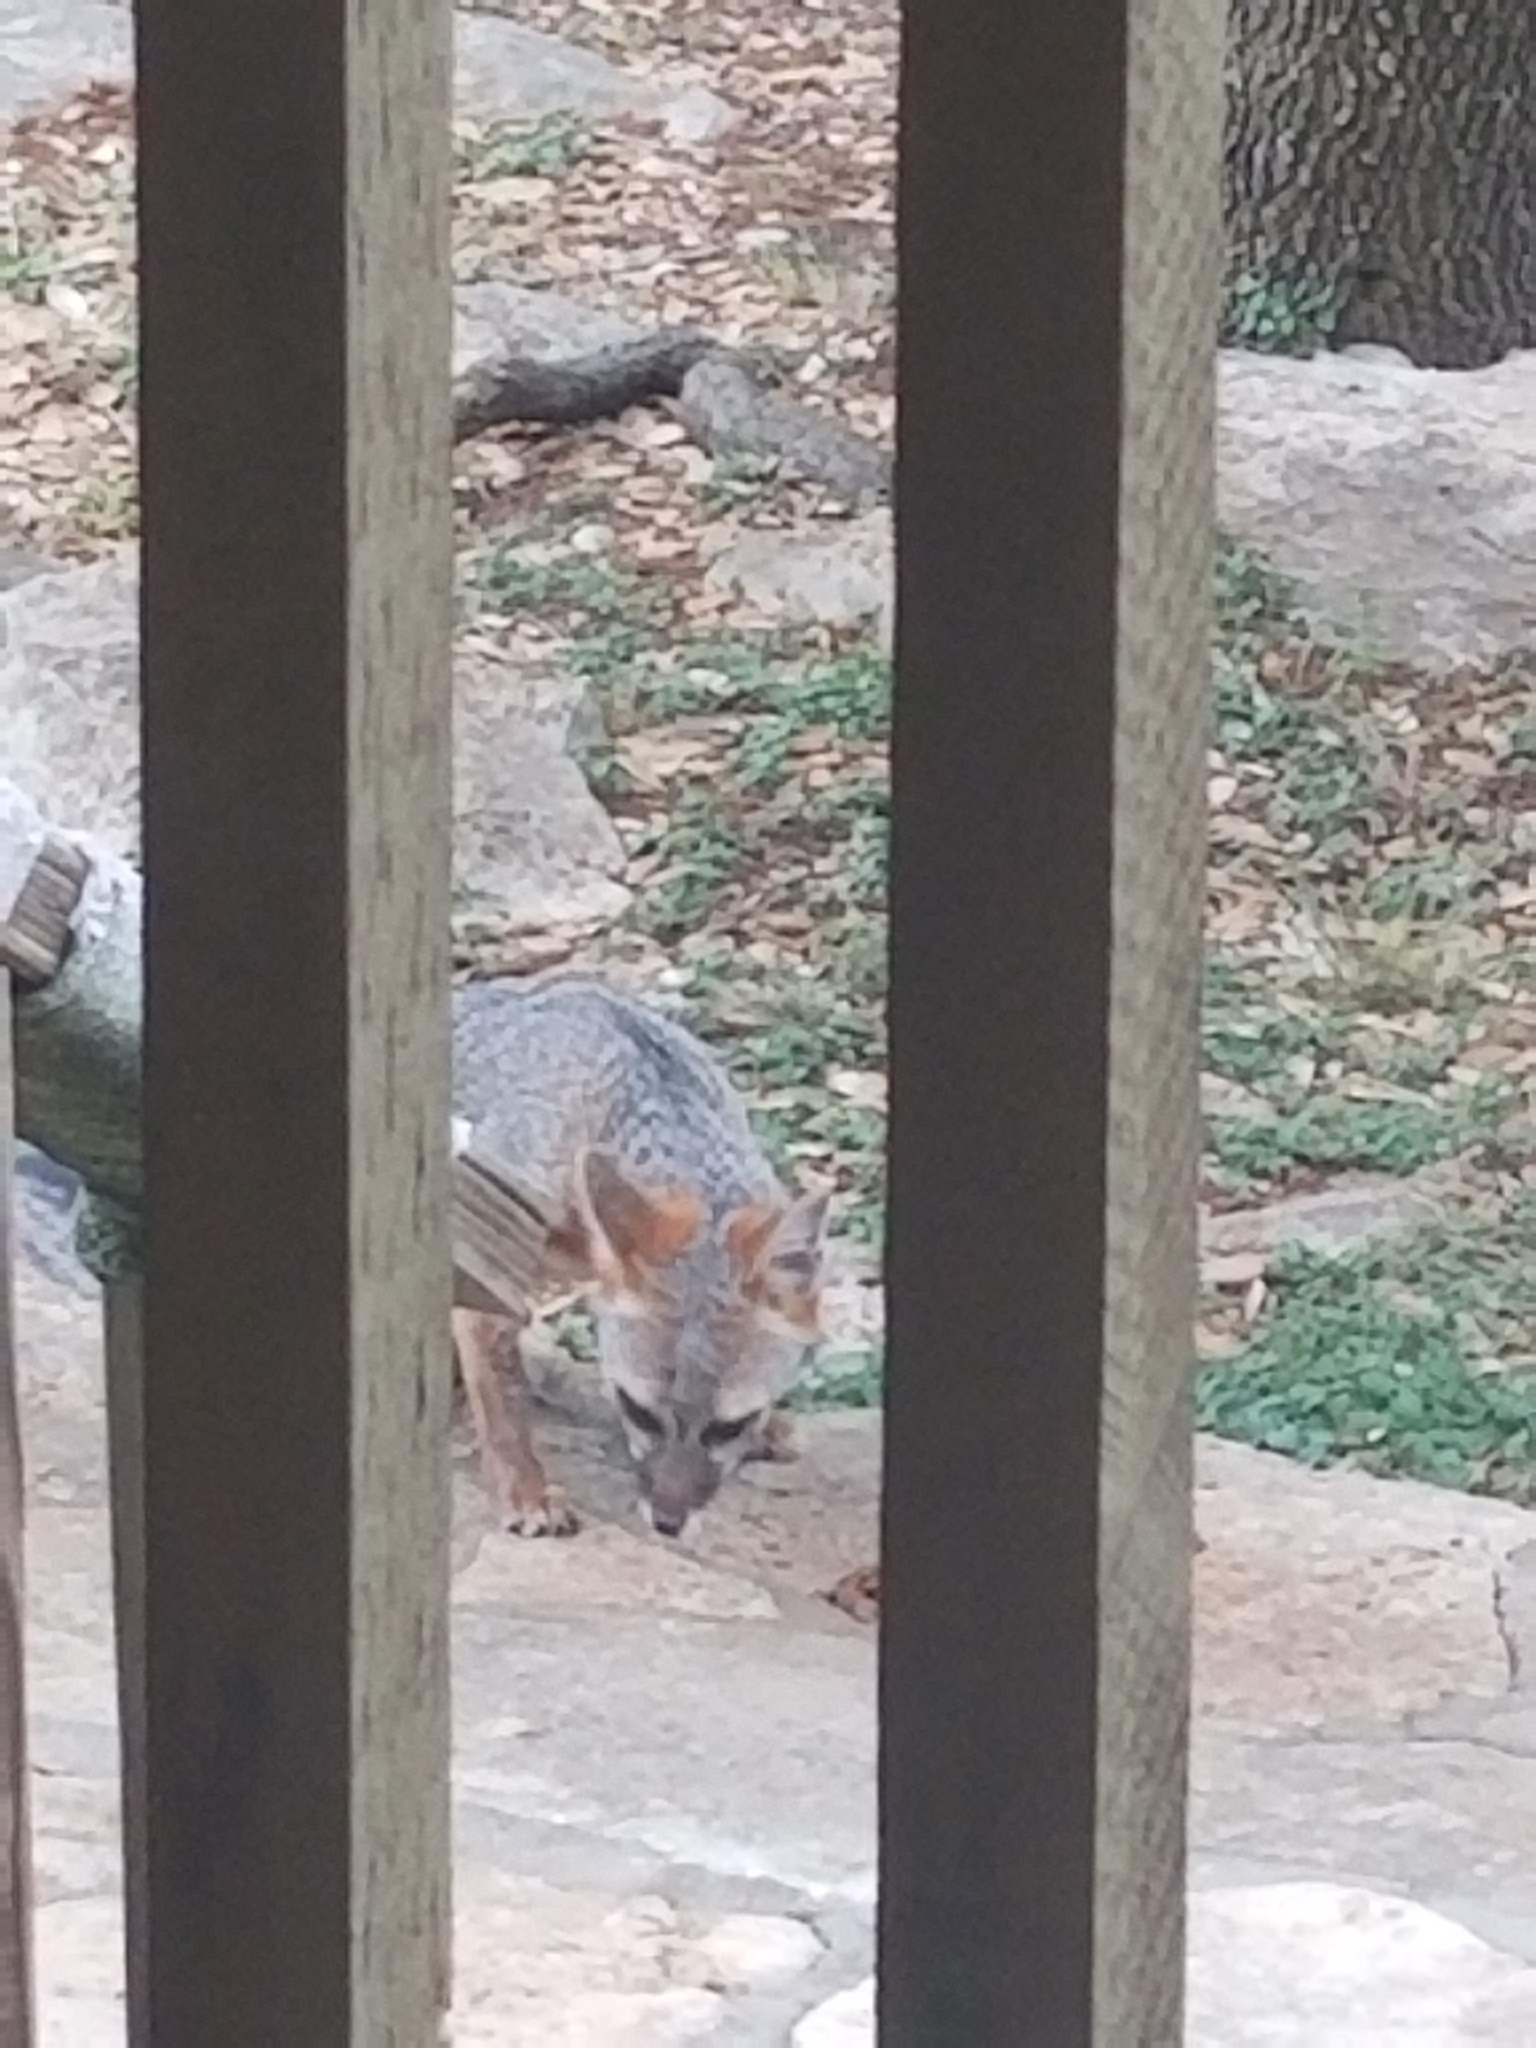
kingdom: Animalia
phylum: Chordata
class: Mammalia
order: Carnivora
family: Canidae
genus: Urocyon
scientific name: Urocyon cinereoargenteus
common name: Gray fox
